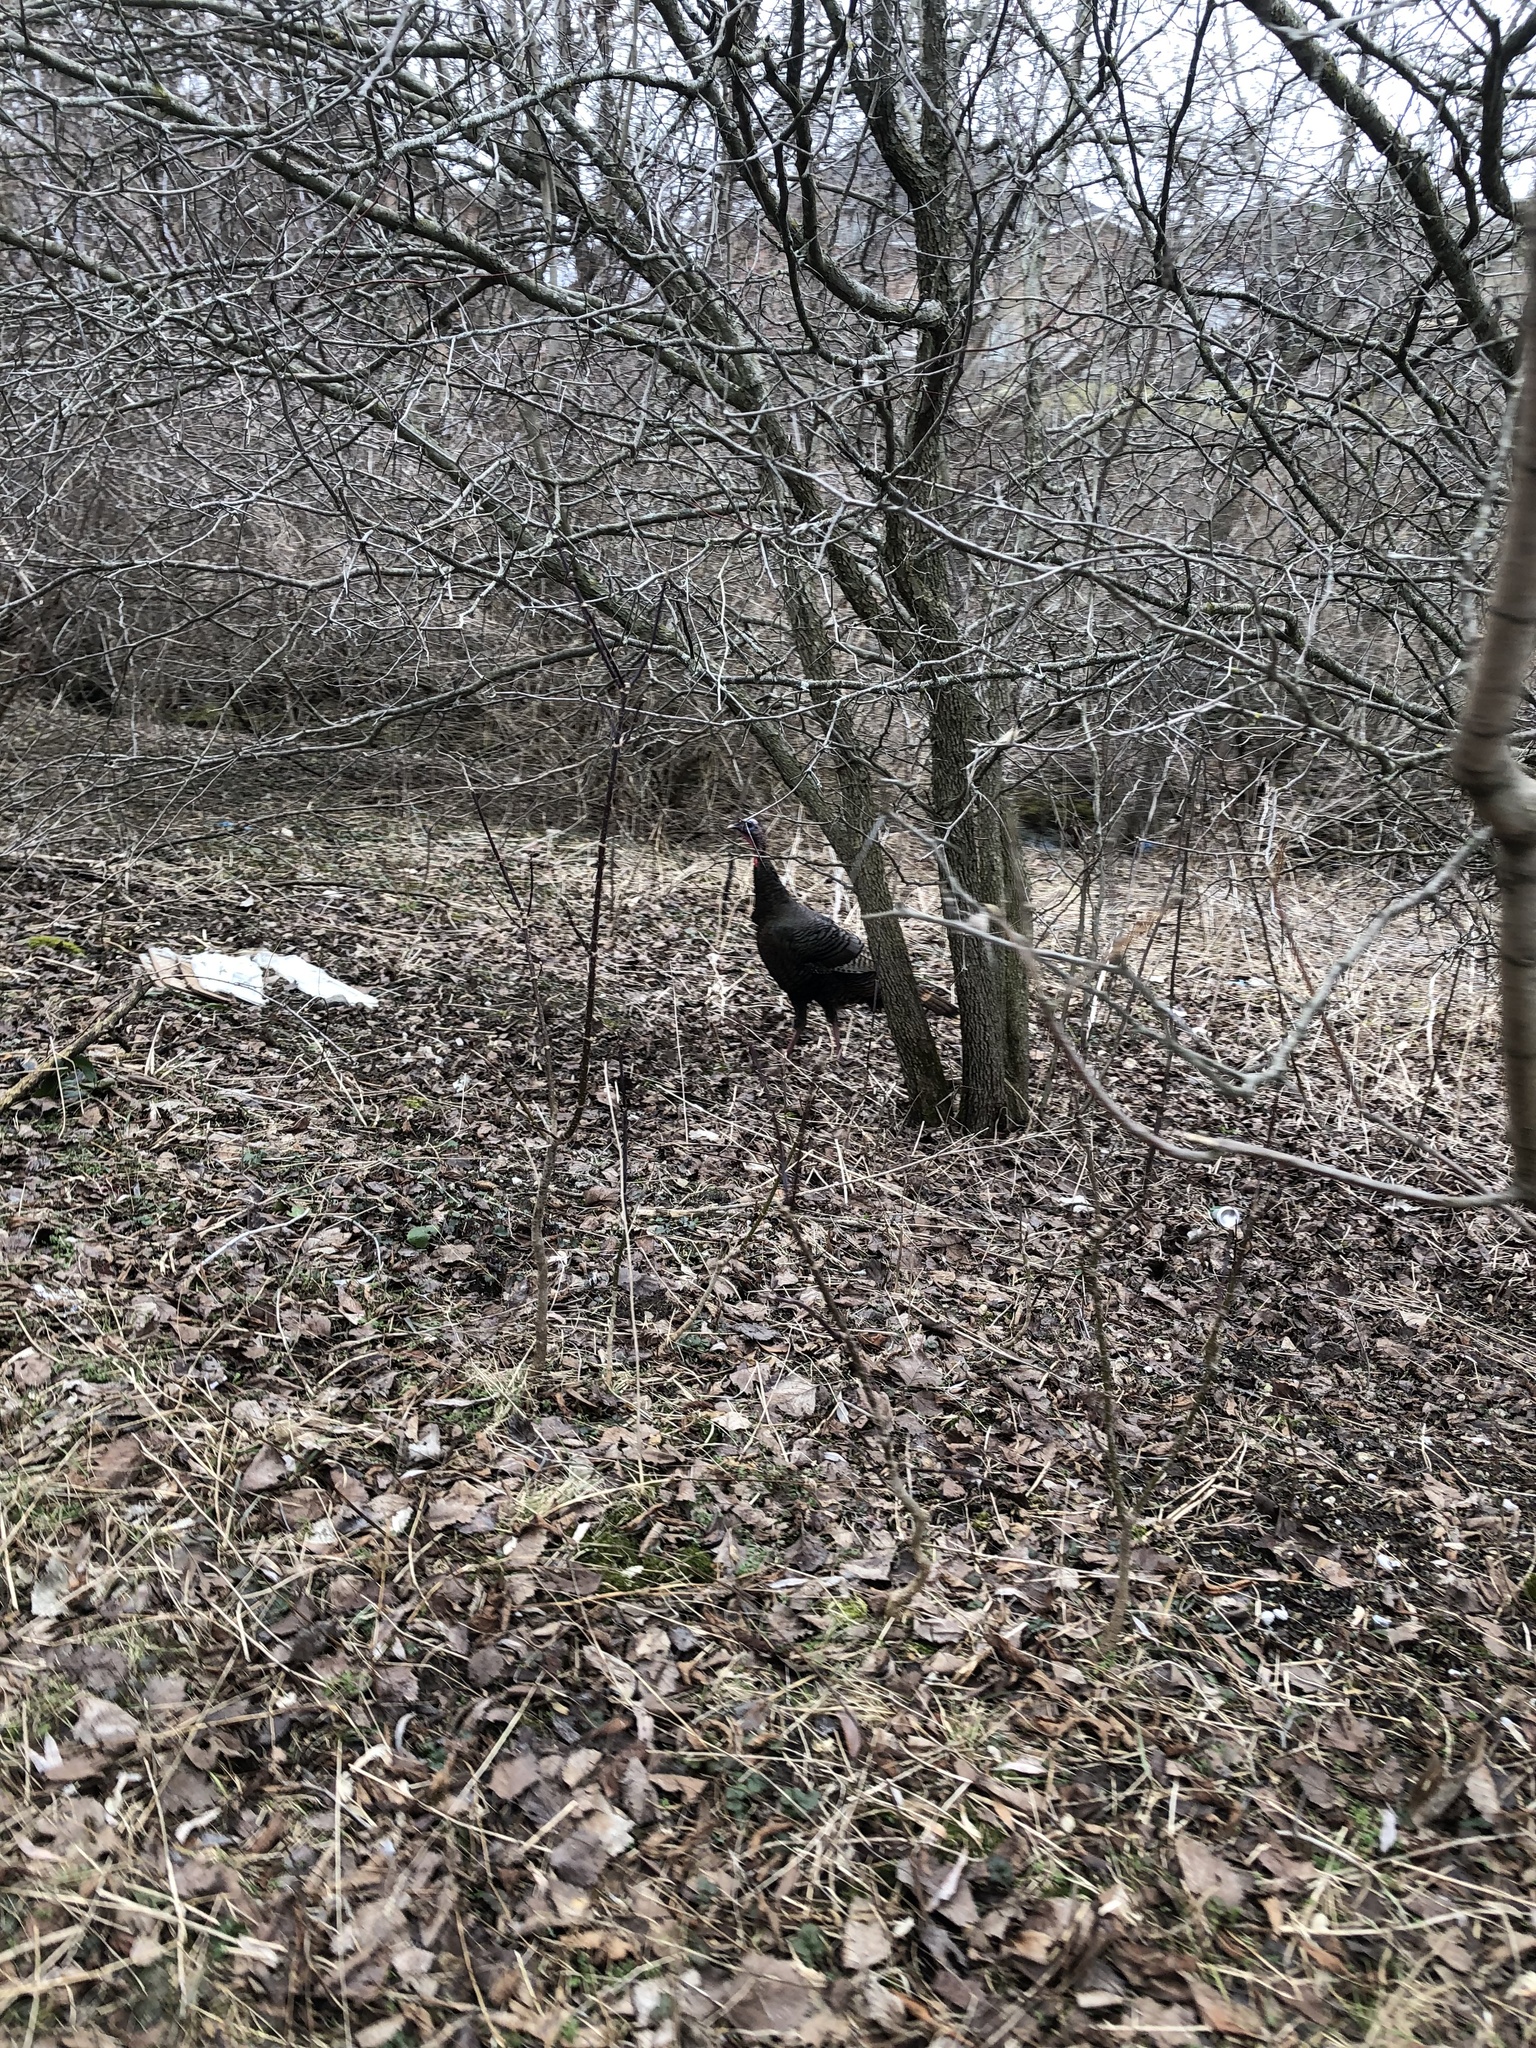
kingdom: Animalia
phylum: Chordata
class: Aves
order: Galliformes
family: Phasianidae
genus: Meleagris
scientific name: Meleagris gallopavo
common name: Wild turkey
